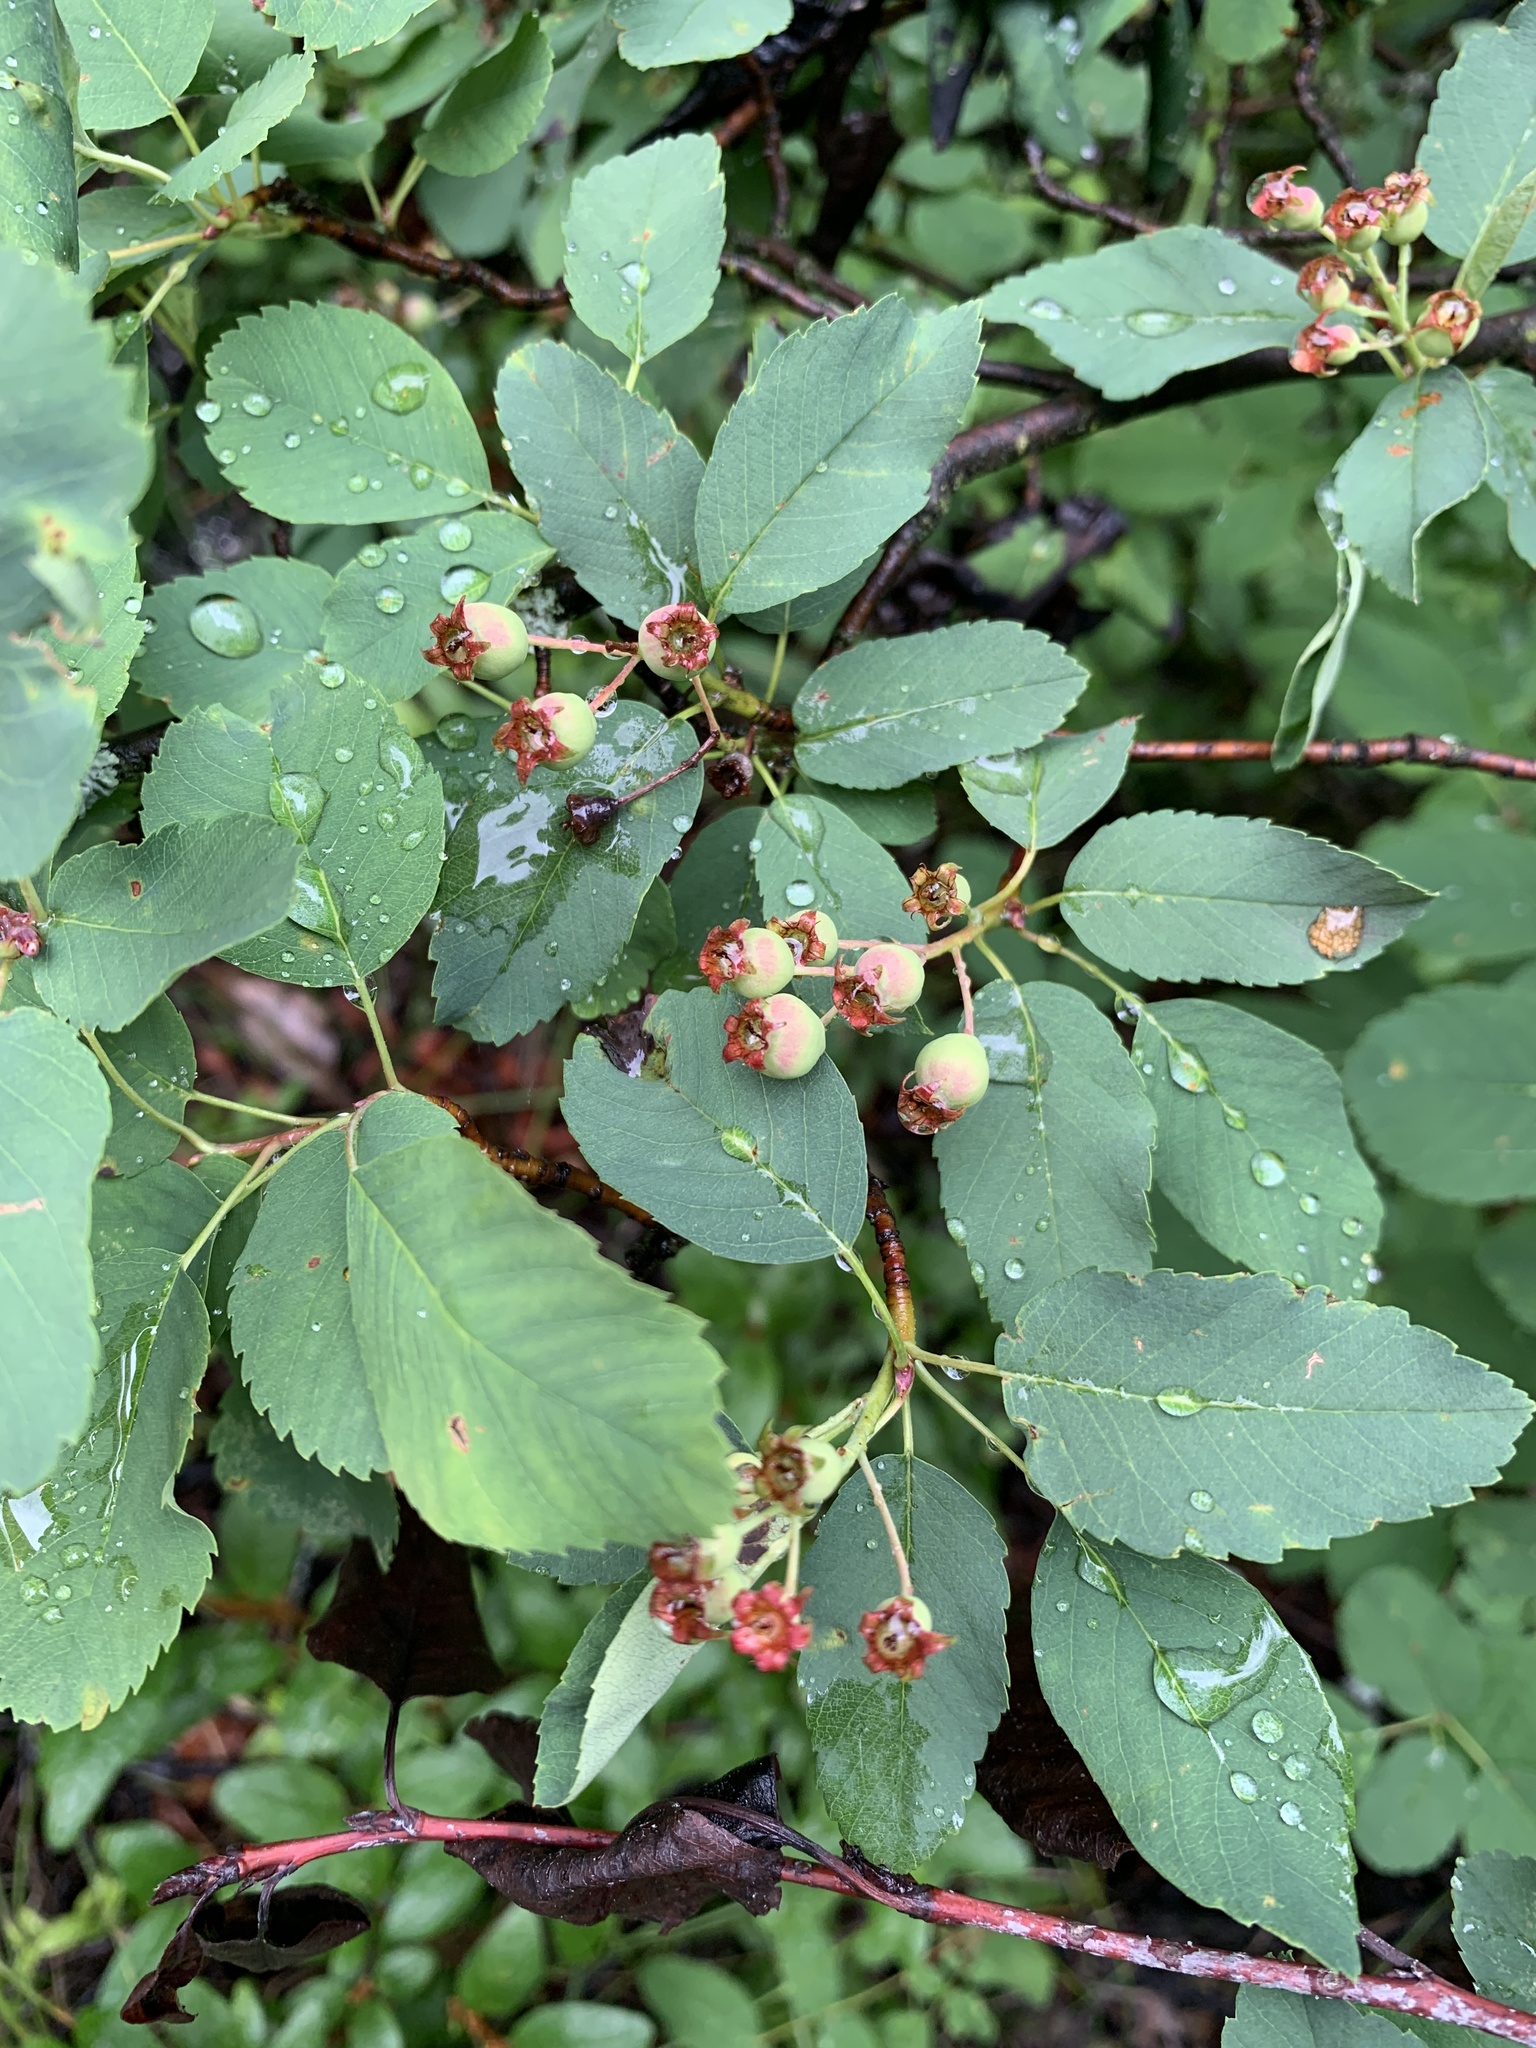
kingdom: Plantae
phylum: Tracheophyta
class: Magnoliopsida
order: Rosales
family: Rosaceae
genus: Amelanchier
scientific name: Amelanchier alnifolia
